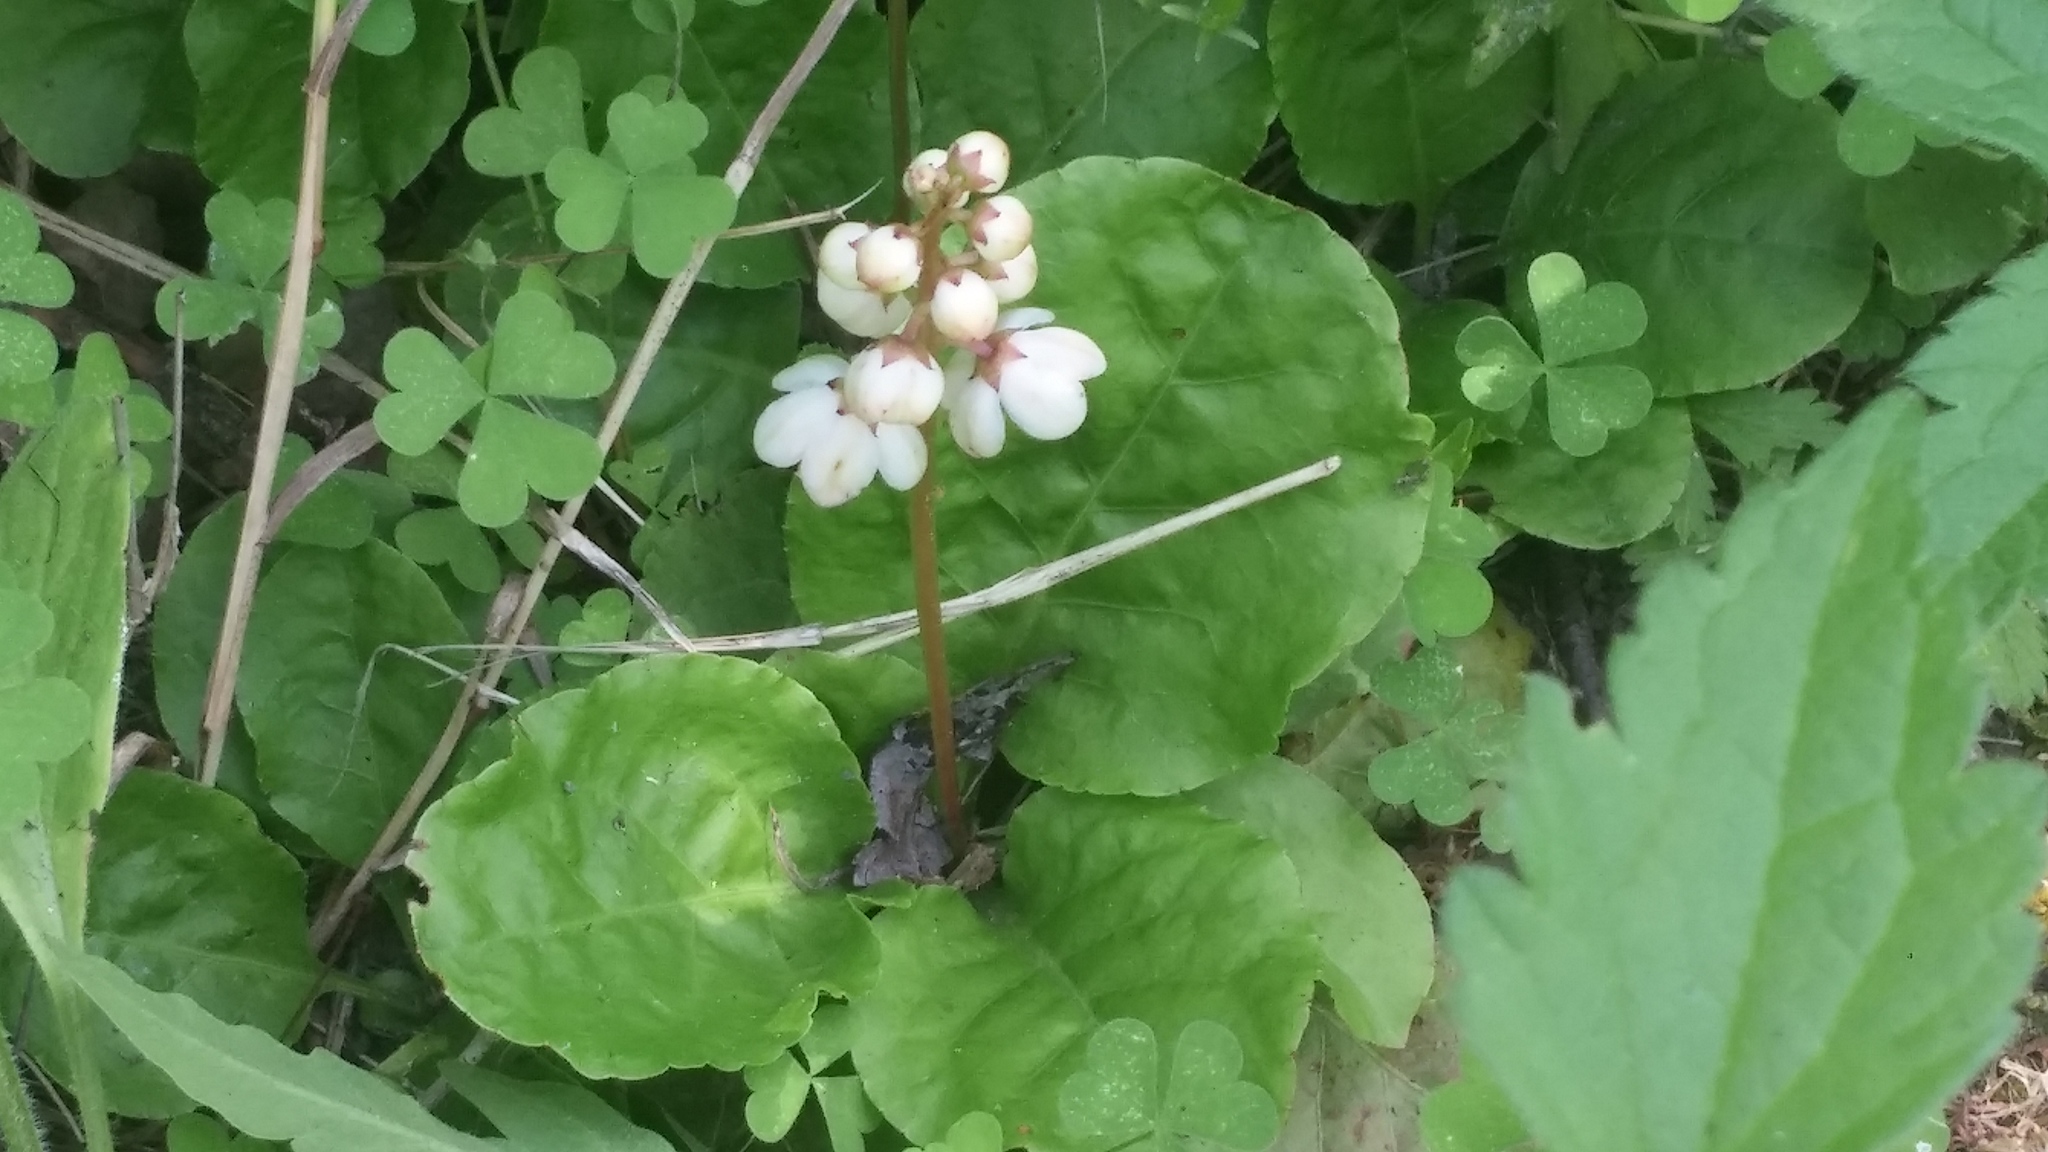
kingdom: Plantae
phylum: Tracheophyta
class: Magnoliopsida
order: Ericales
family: Ericaceae
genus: Pyrola
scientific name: Pyrola elliptica
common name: Shinleaf
